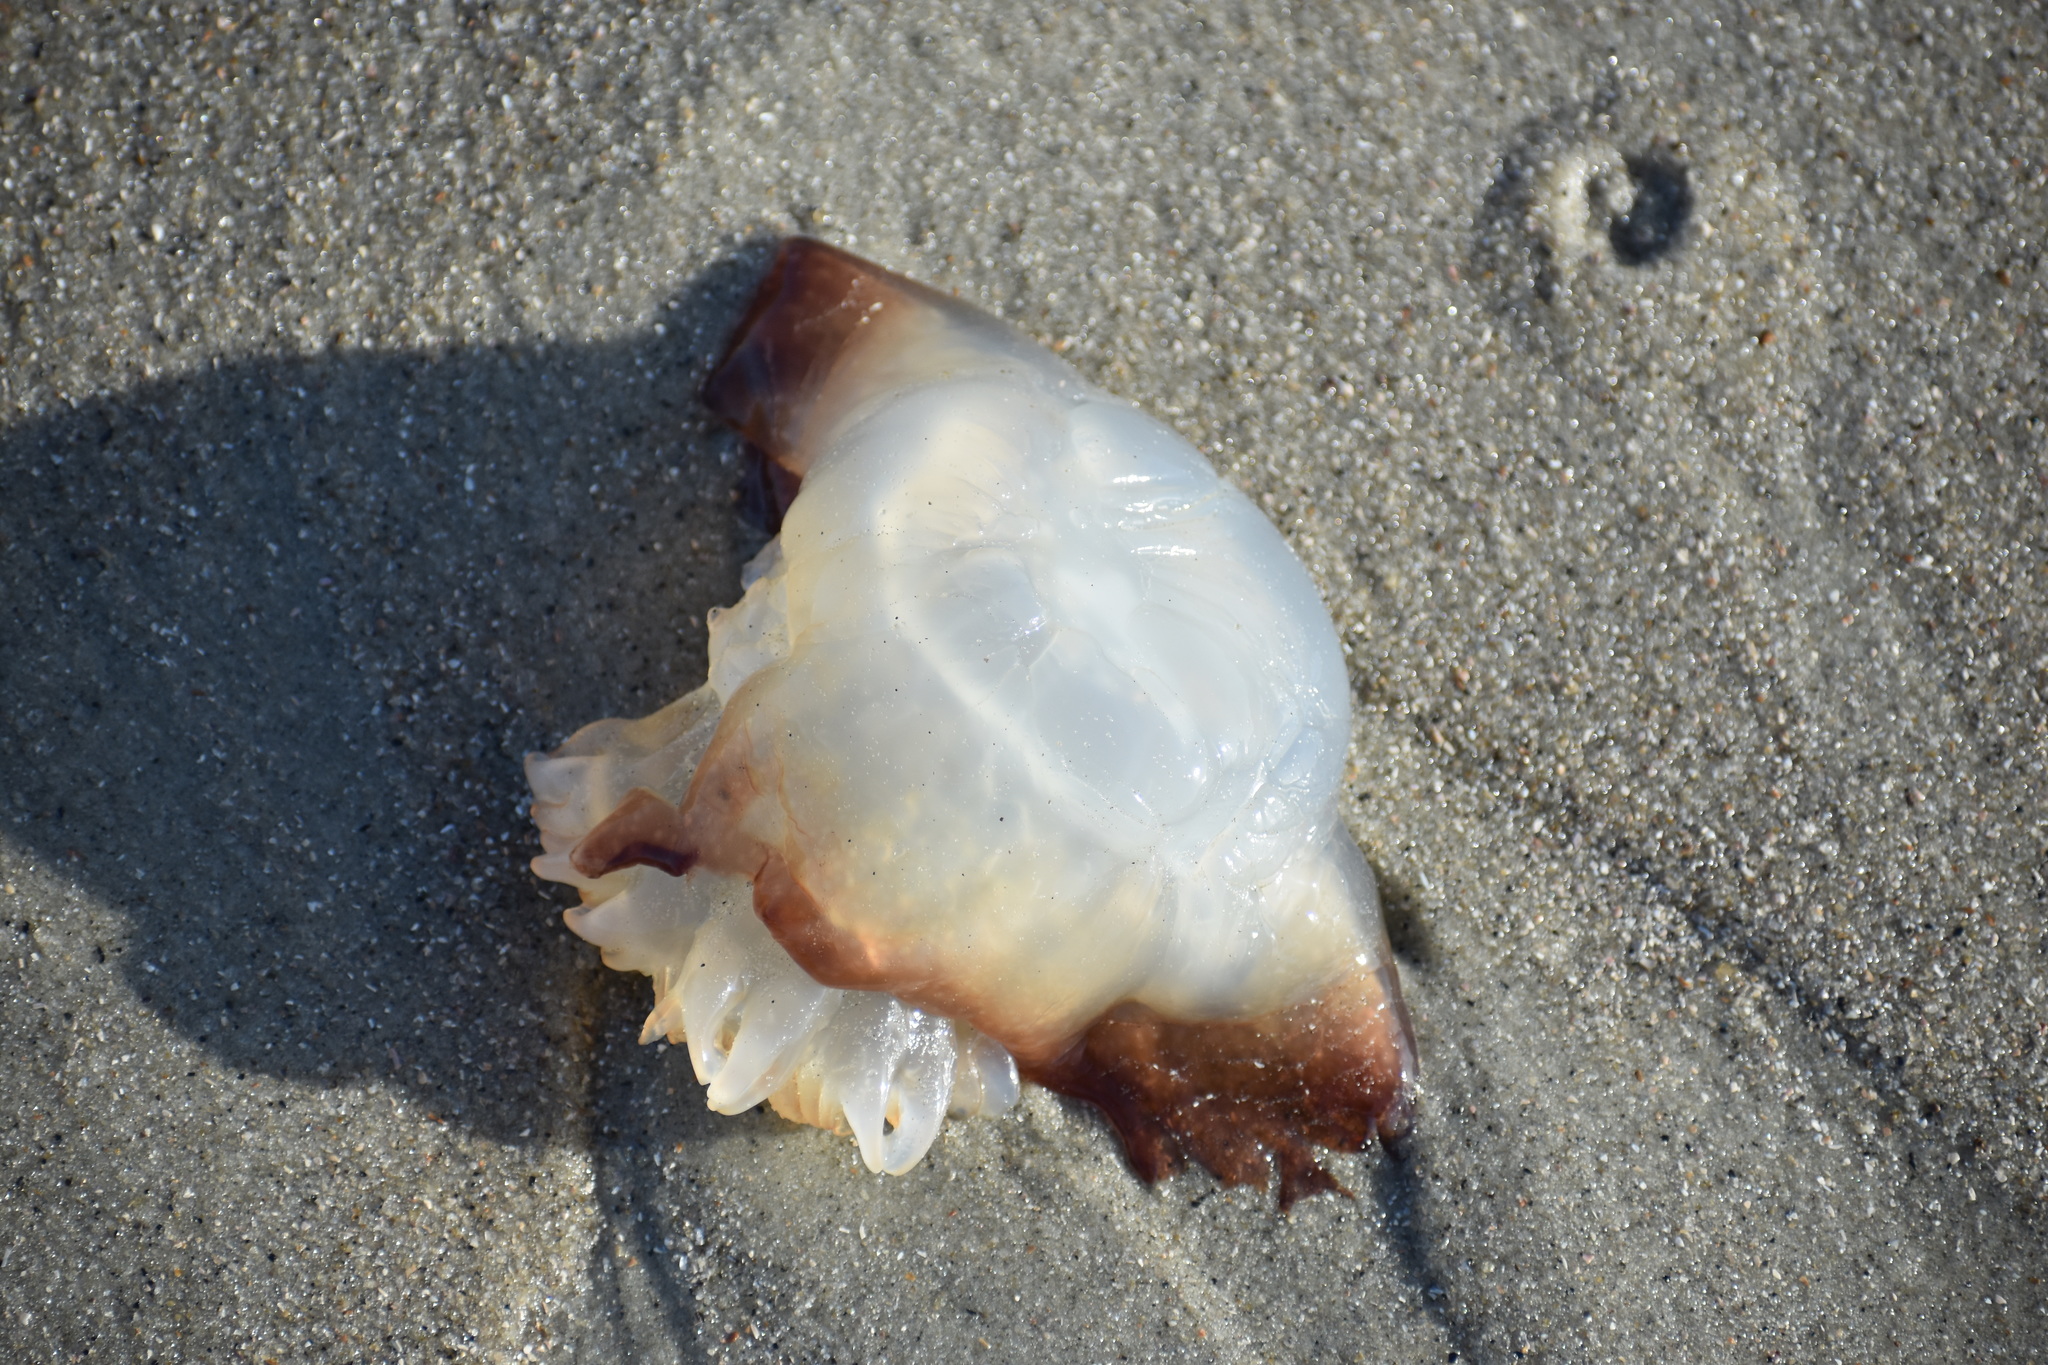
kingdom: Animalia
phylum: Cnidaria
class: Scyphozoa
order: Rhizostomeae
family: Stomolophidae
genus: Stomolophus
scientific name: Stomolophus meleagris
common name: Cabbagehead
